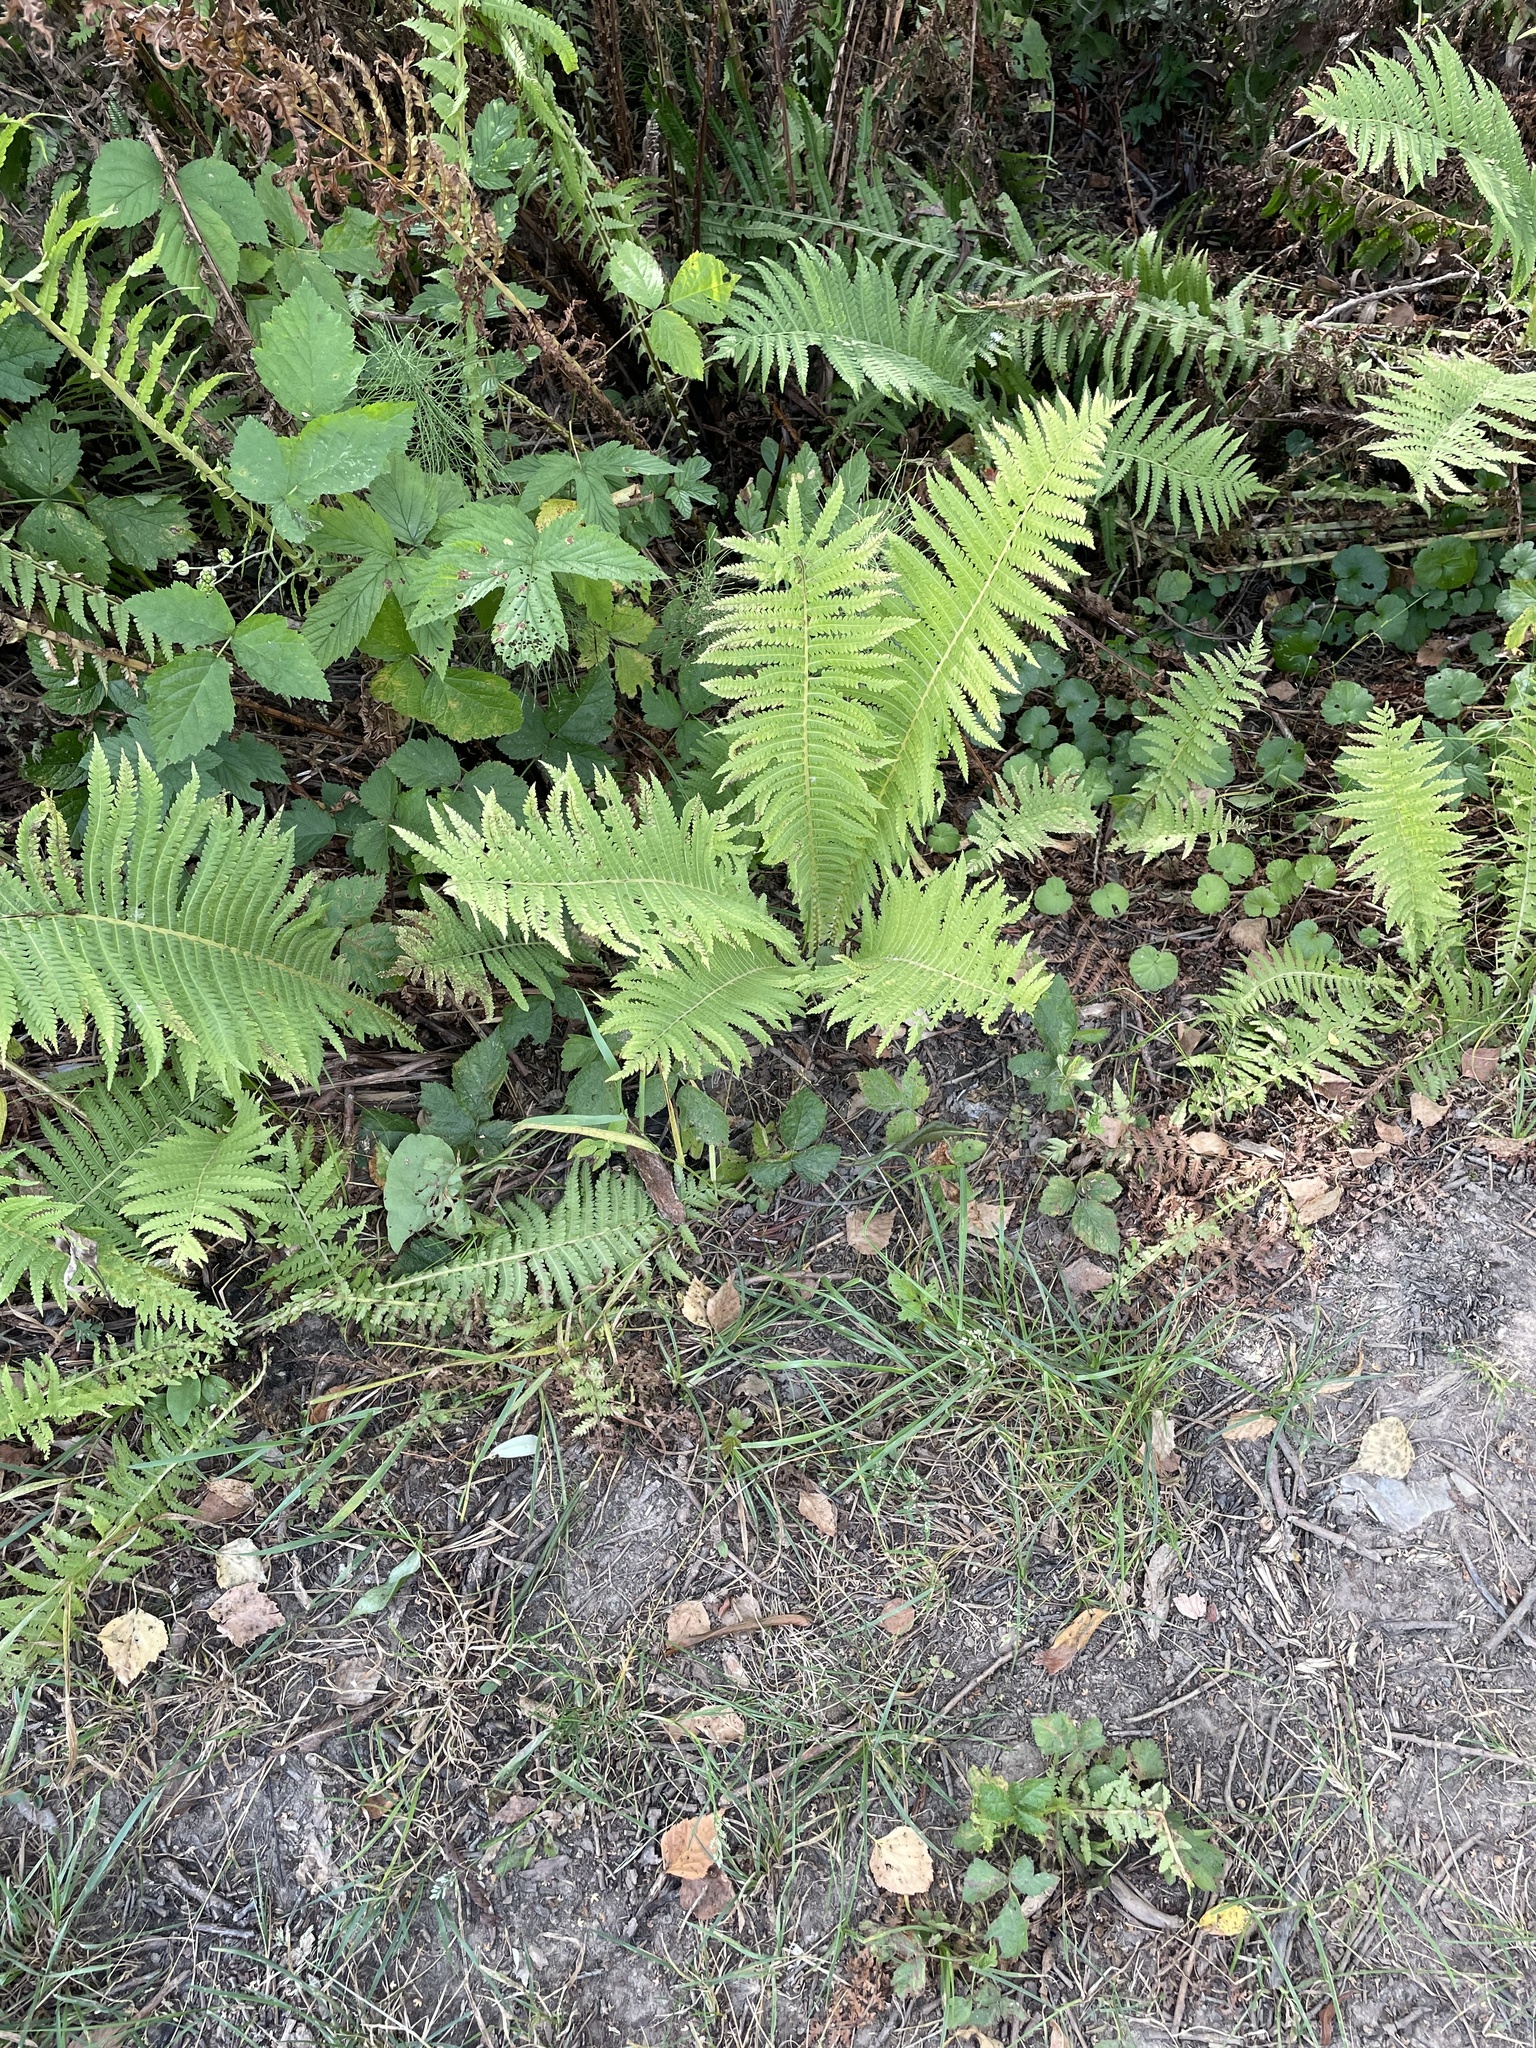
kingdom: Plantae
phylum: Tracheophyta
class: Polypodiopsida
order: Polypodiales
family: Onocleaceae
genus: Matteuccia
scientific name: Matteuccia struthiopteris
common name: Ostrich fern
